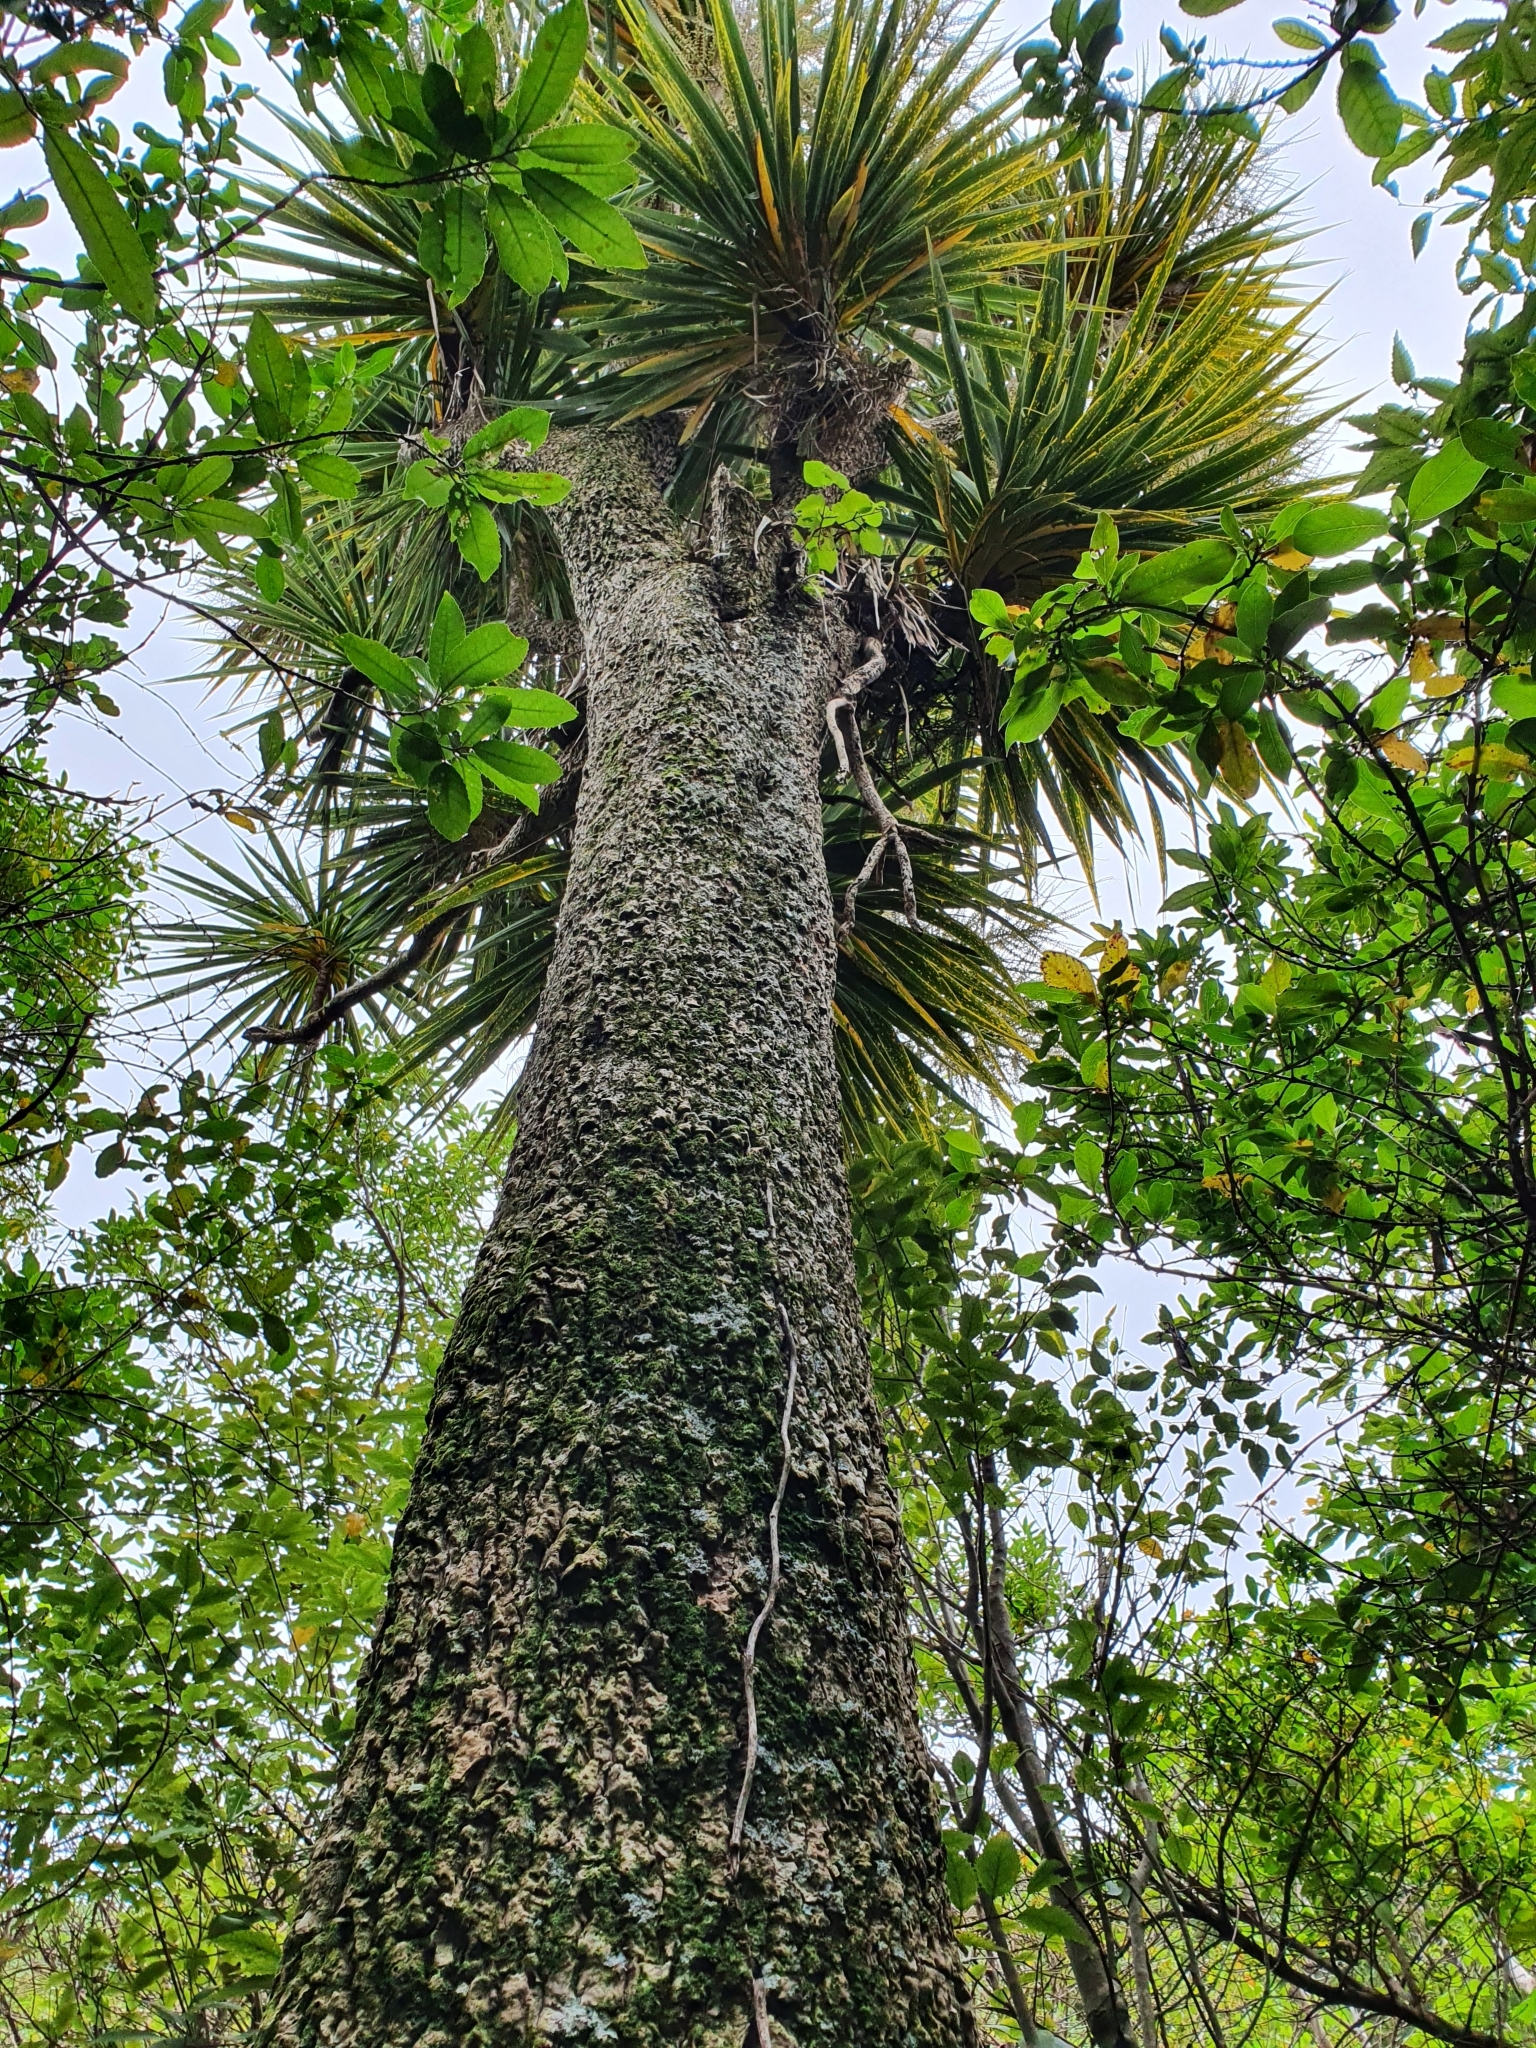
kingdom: Plantae
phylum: Tracheophyta
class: Liliopsida
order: Asparagales
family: Asparagaceae
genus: Cordyline
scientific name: Cordyline australis
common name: Cabbage-palm
